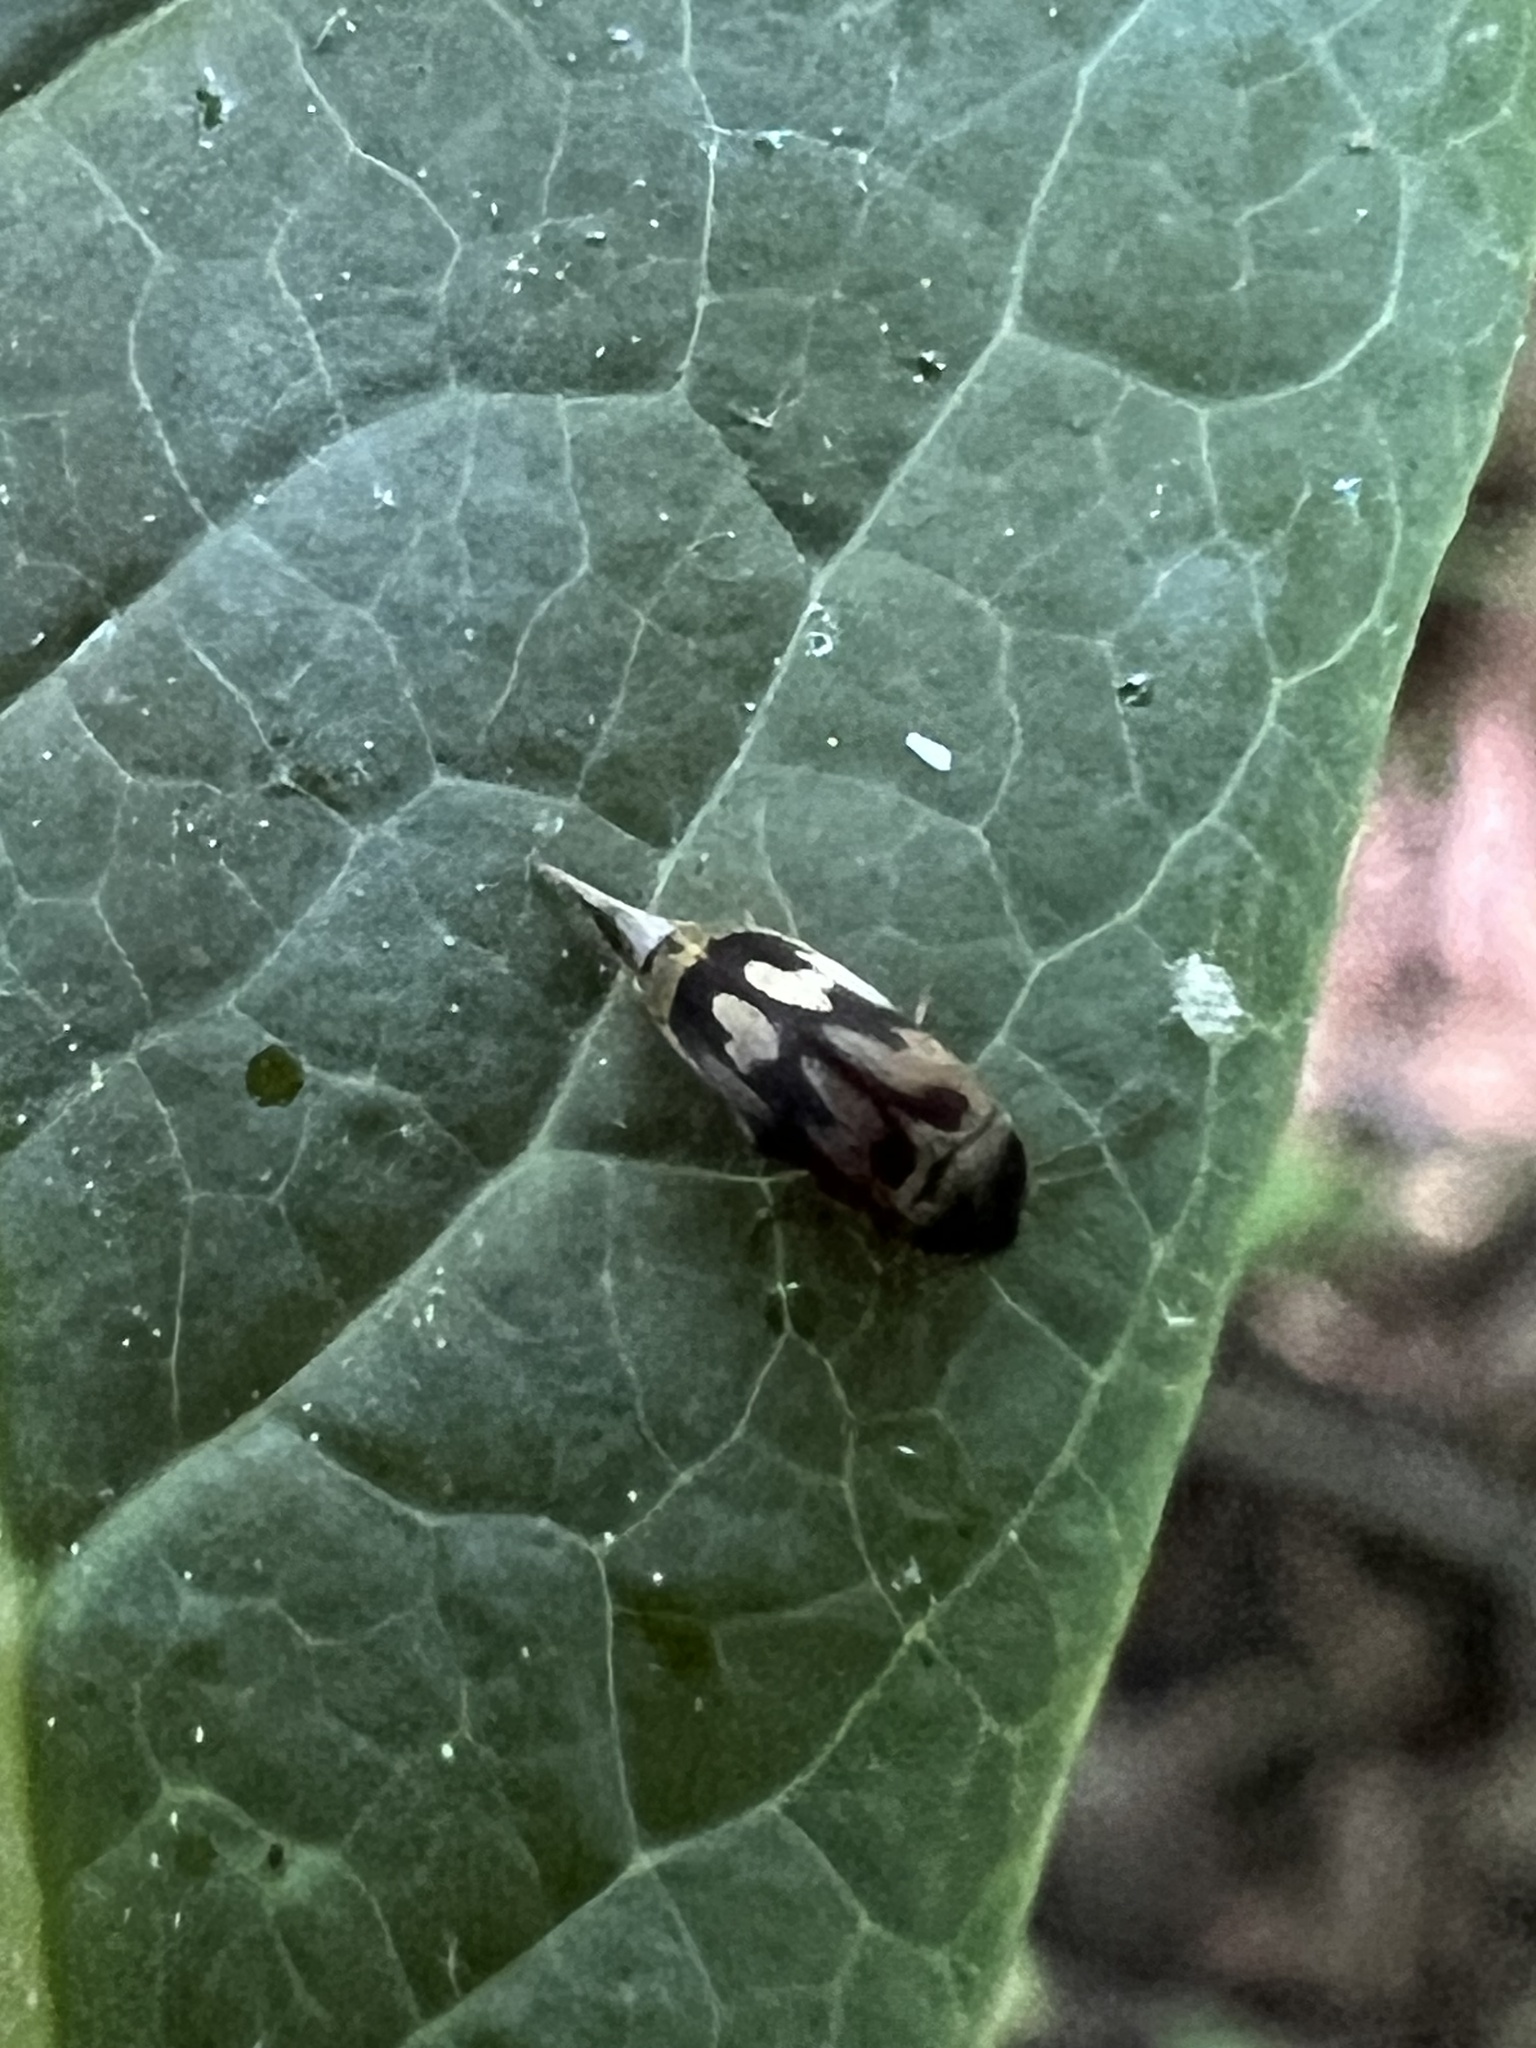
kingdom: Animalia
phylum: Arthropoda
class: Insecta
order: Coleoptera
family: Mordellidae
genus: Falsomordellistena
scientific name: Falsomordellistena bihamata
